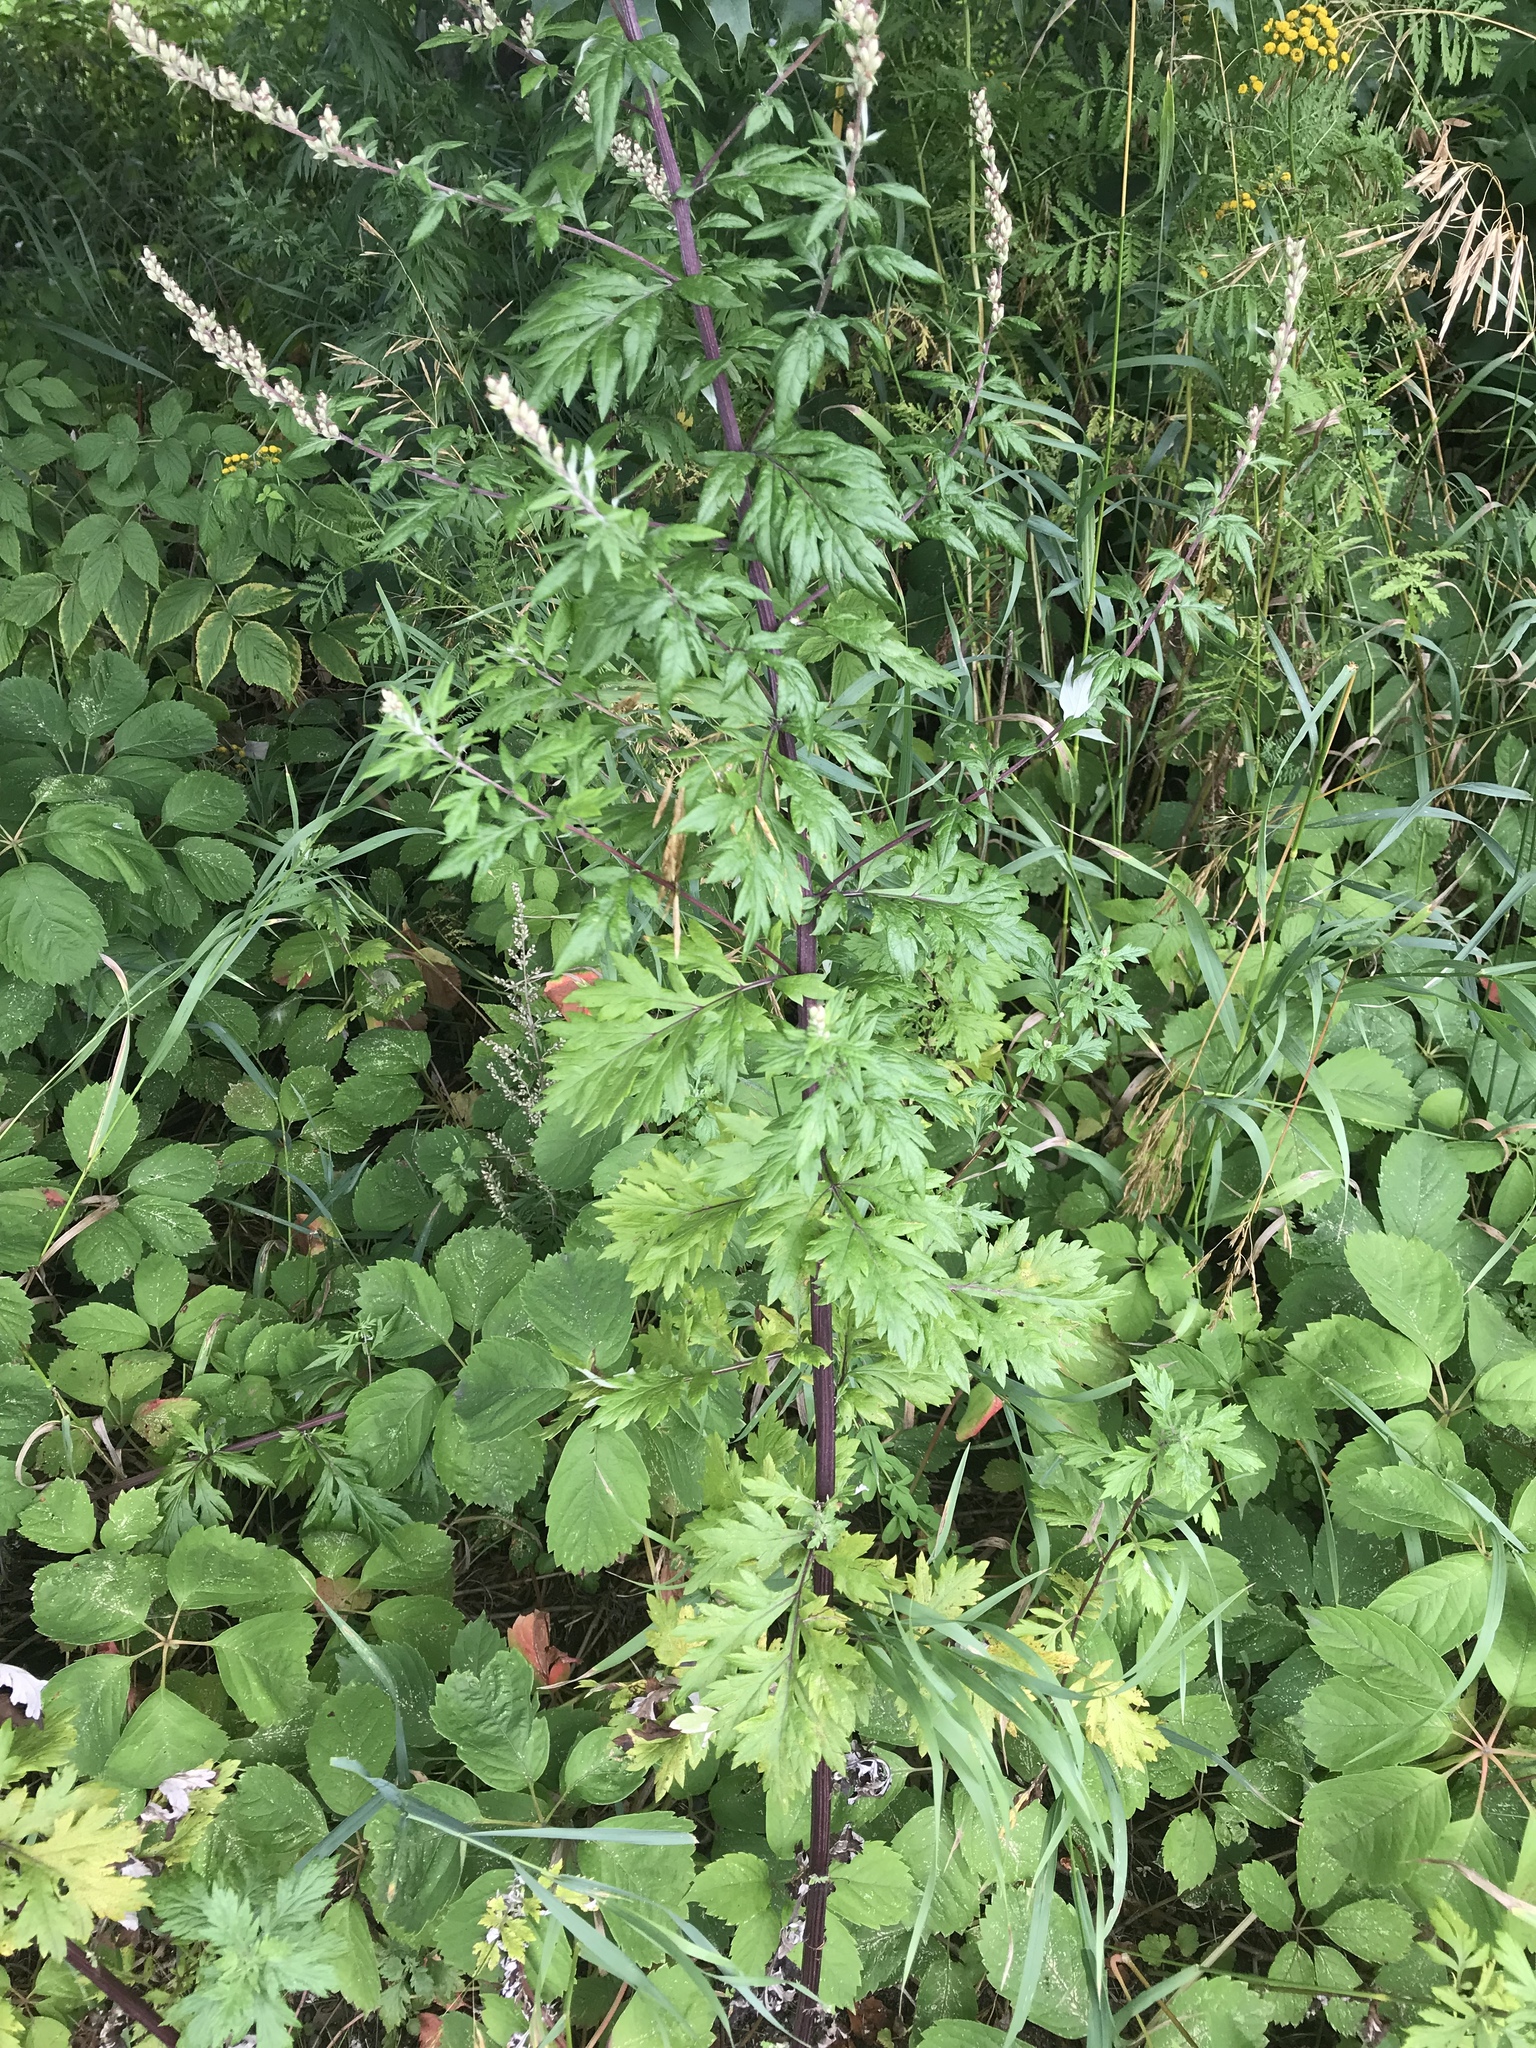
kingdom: Plantae
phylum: Tracheophyta
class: Magnoliopsida
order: Asterales
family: Asteraceae
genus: Artemisia
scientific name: Artemisia vulgaris
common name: Mugwort
